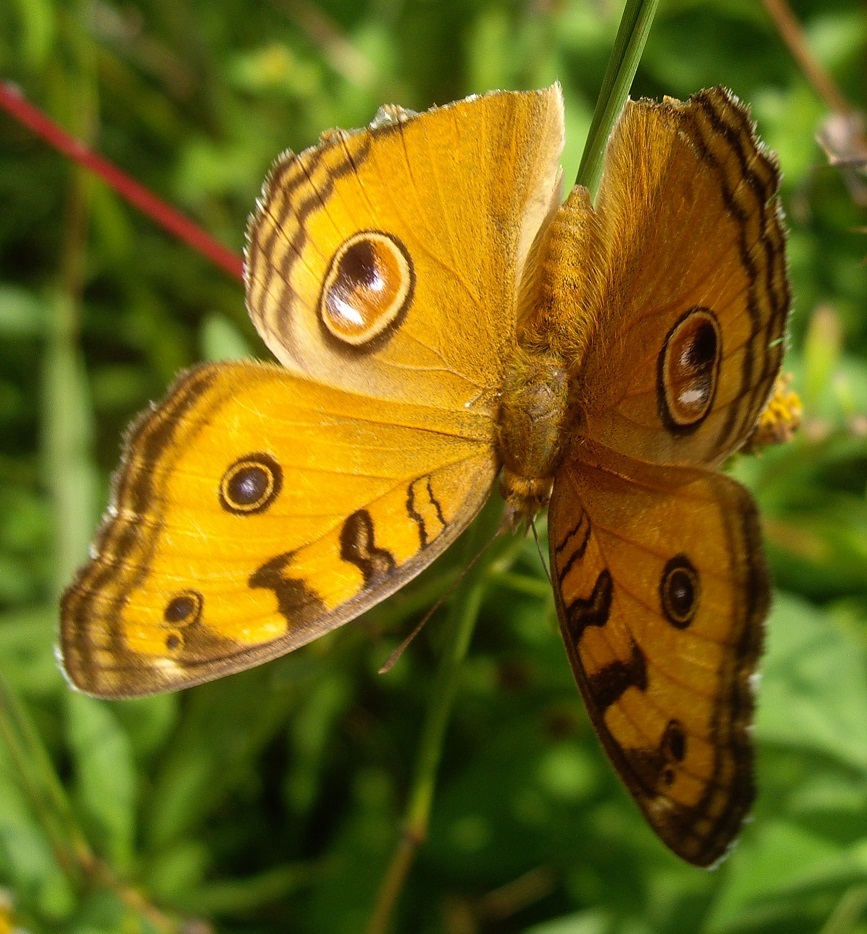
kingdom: Animalia
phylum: Arthropoda
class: Insecta
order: Lepidoptera
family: Nymphalidae
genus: Junonia
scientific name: Junonia almana
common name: Peacock pansy
